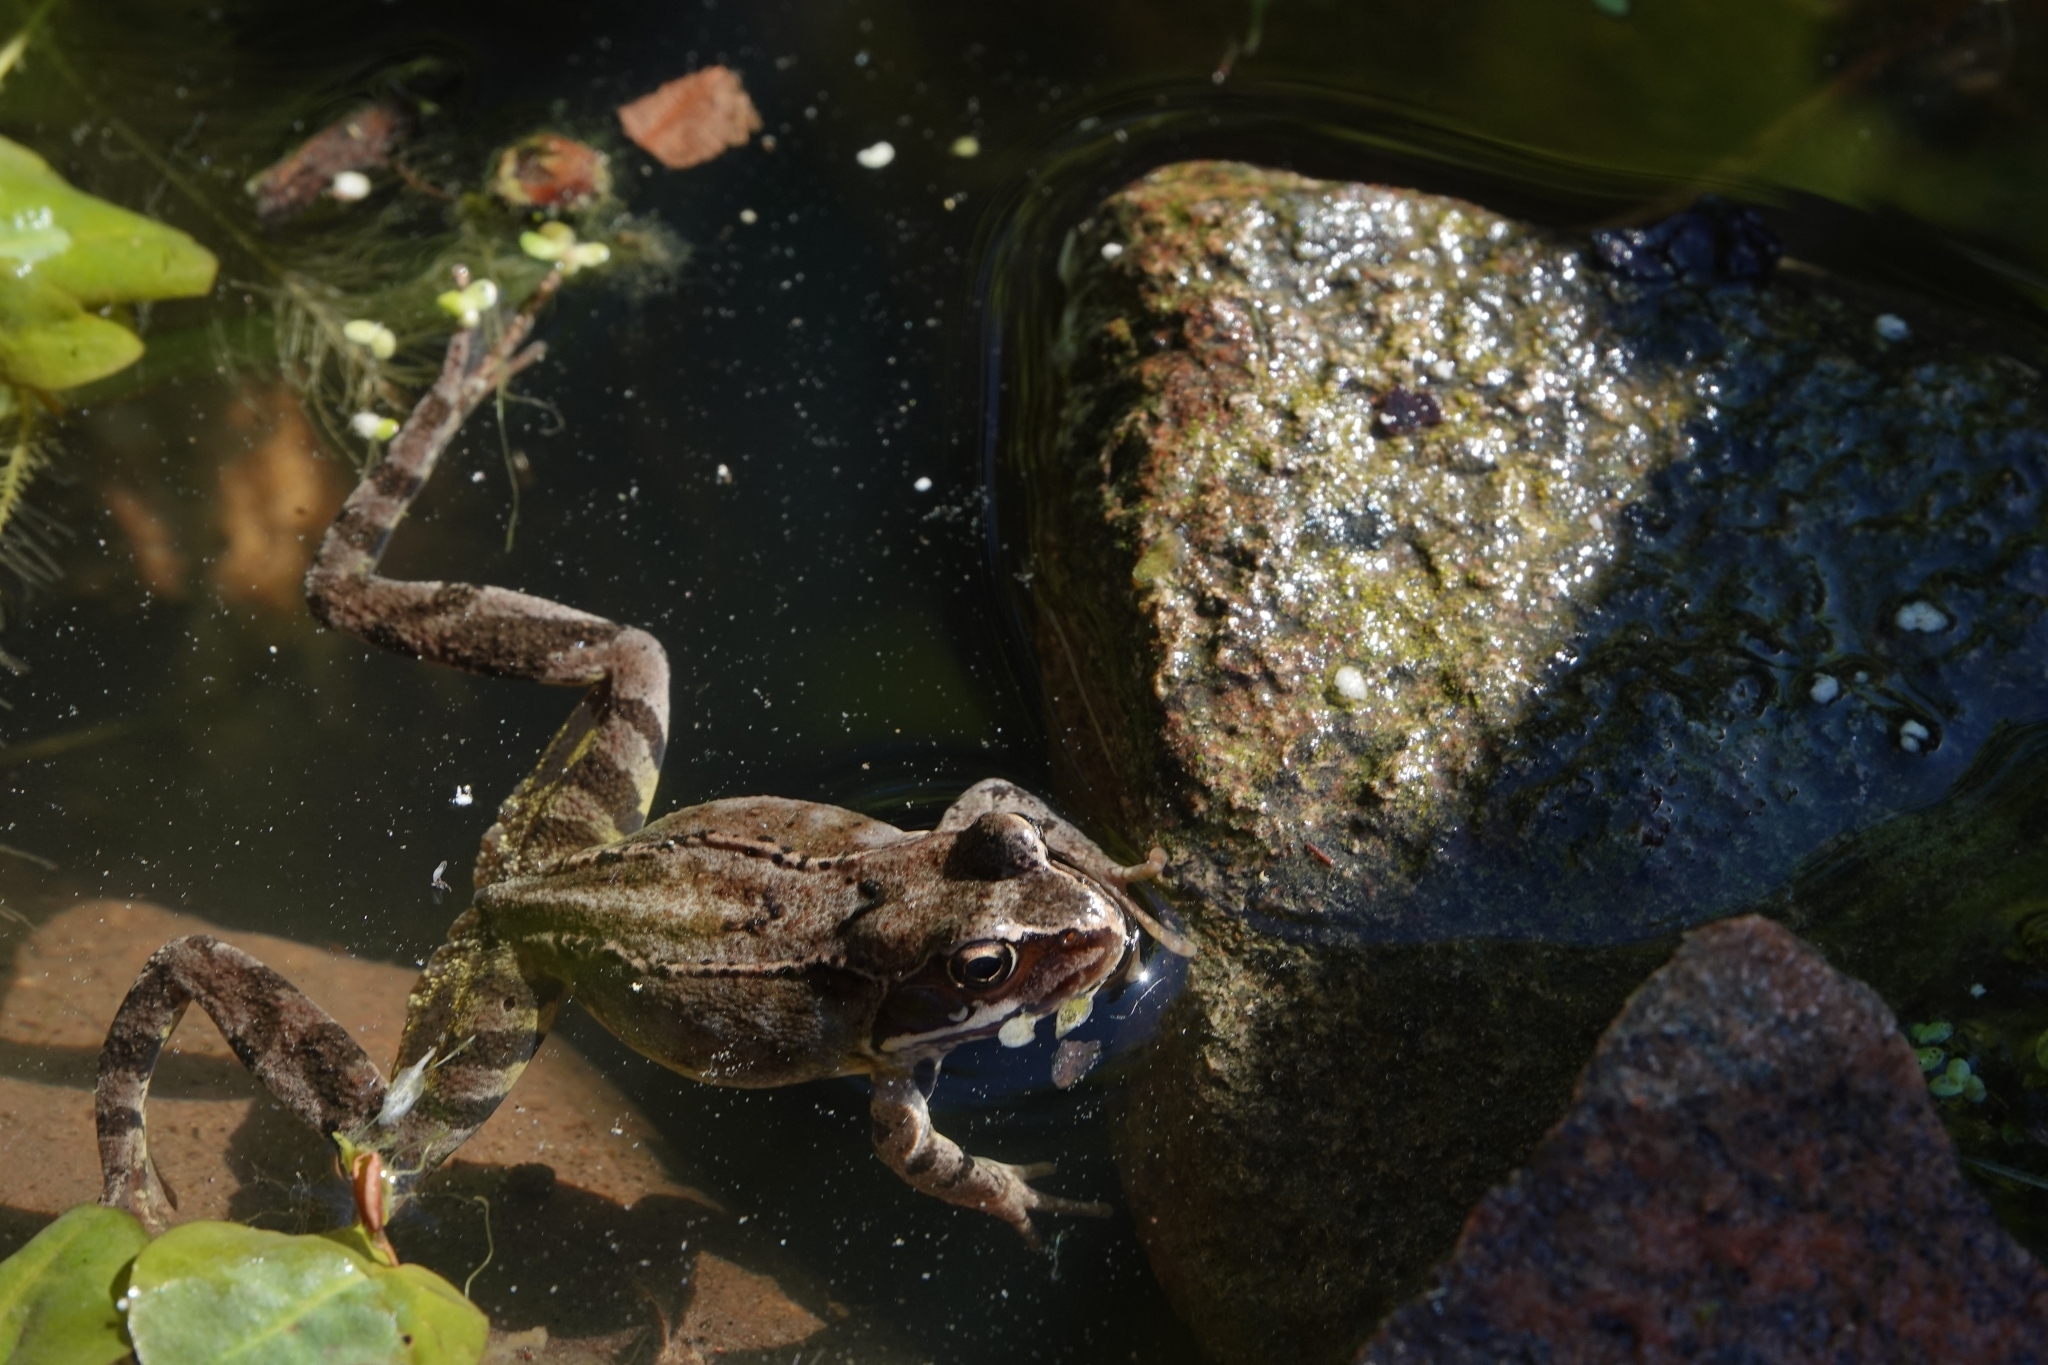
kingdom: Animalia
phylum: Chordata
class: Amphibia
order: Anura
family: Ranidae
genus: Rana
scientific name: Rana temporaria
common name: Common frog
